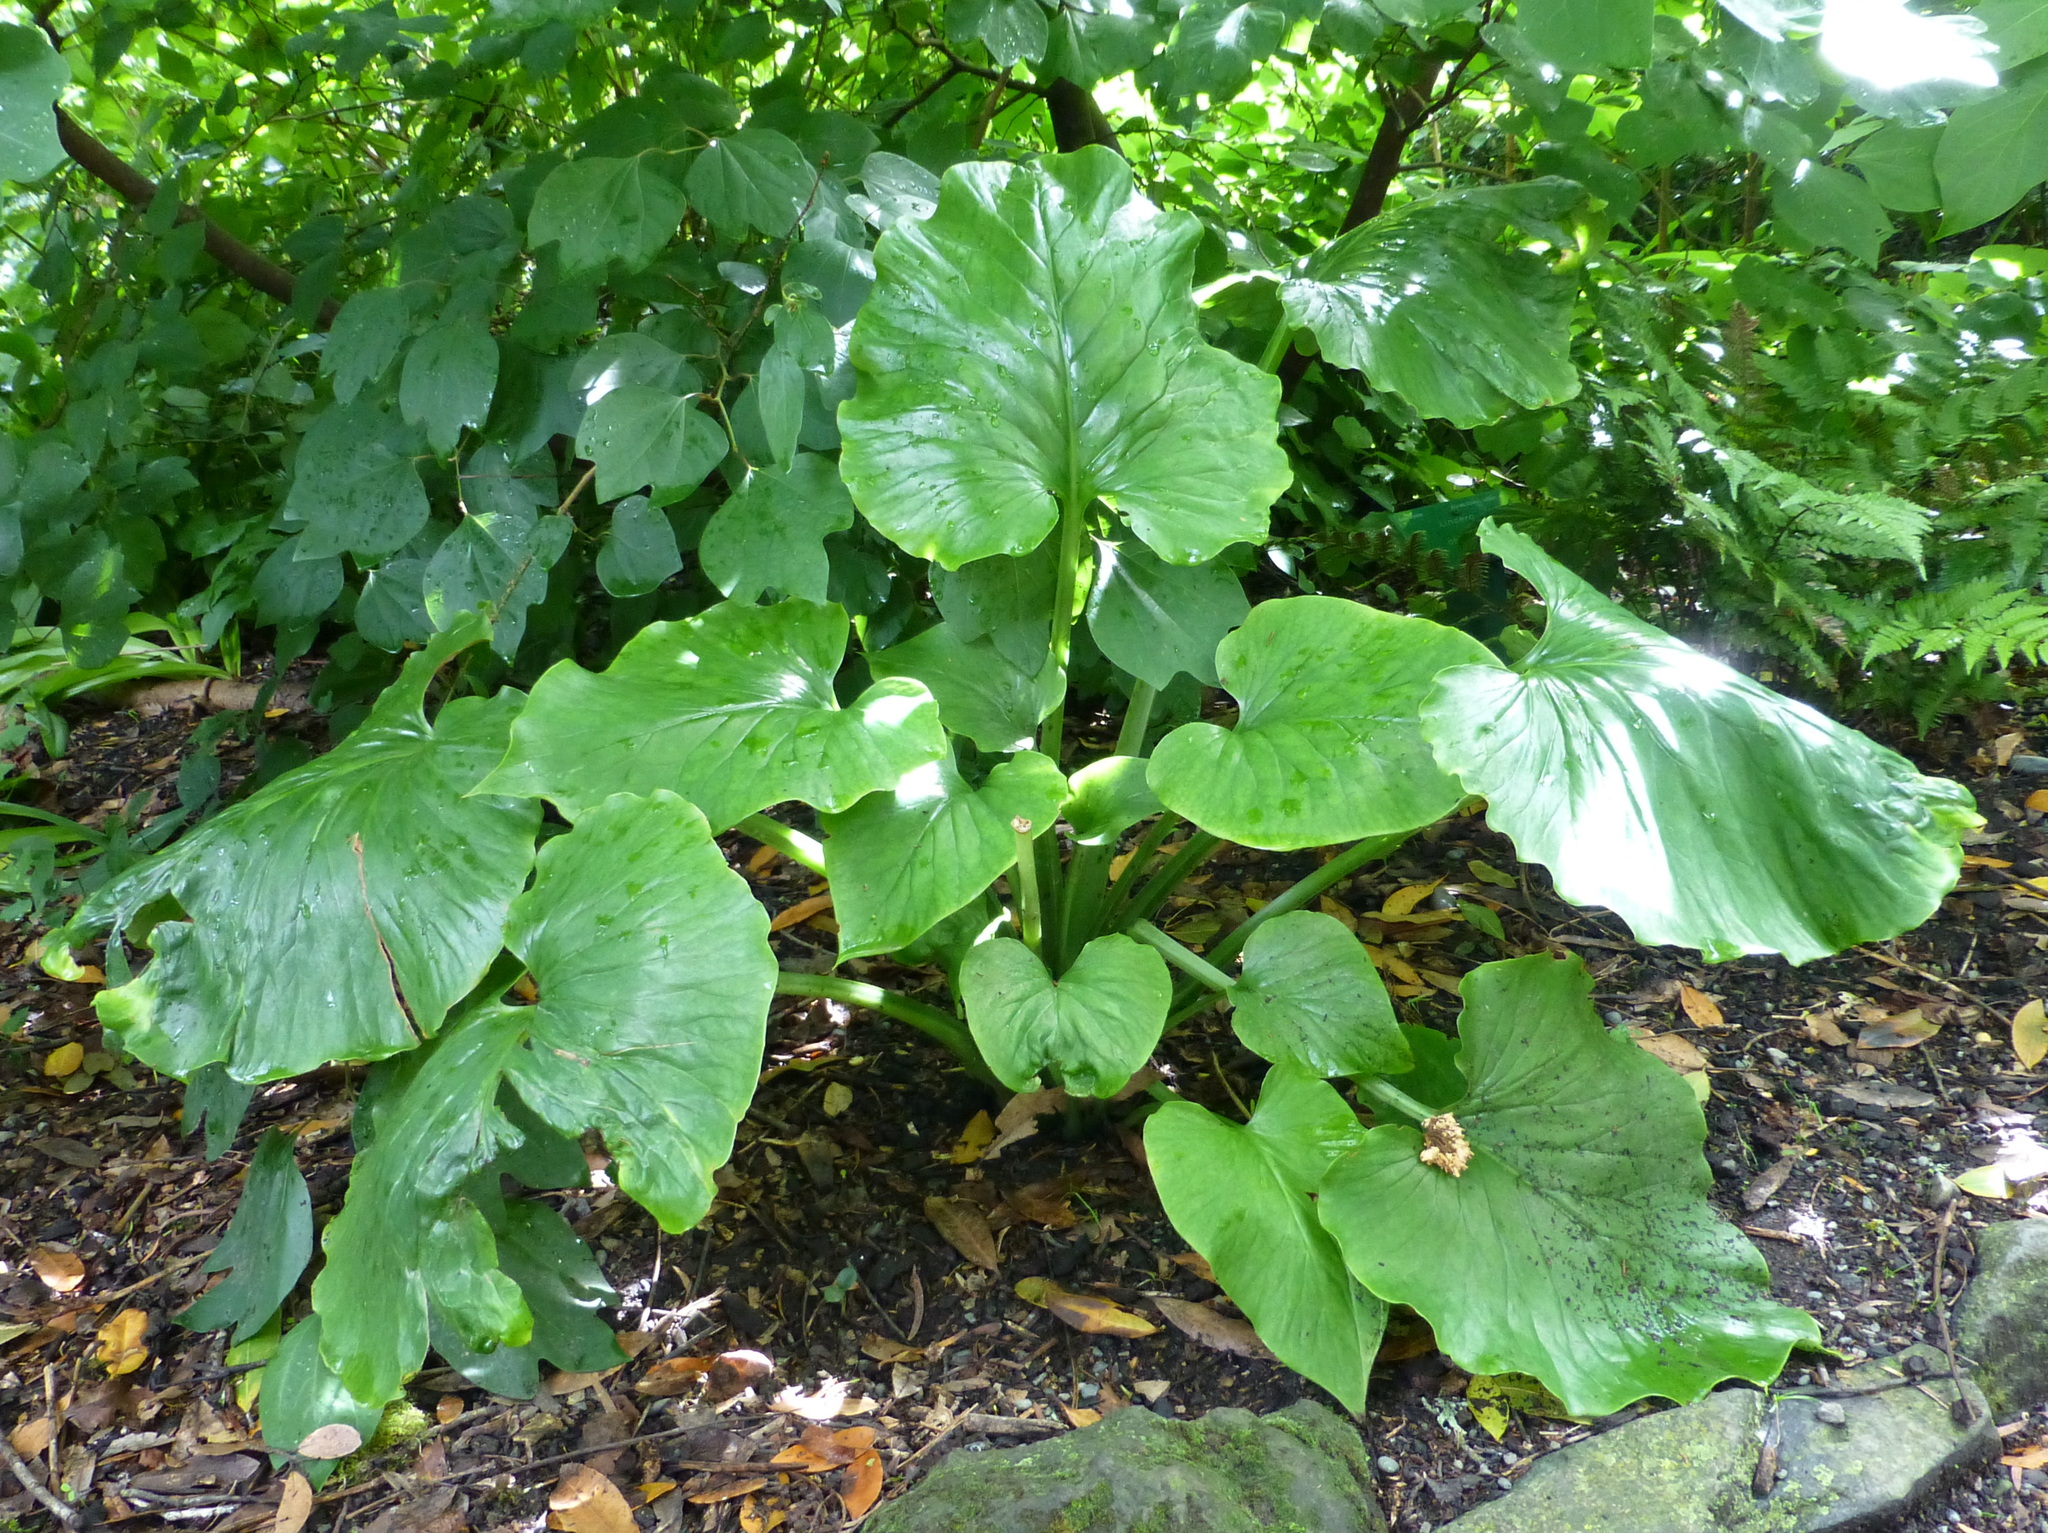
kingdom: Plantae
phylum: Tracheophyta
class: Liliopsida
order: Liliales
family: Liliaceae
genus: Cardiocrinum
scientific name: Cardiocrinum giganteum
